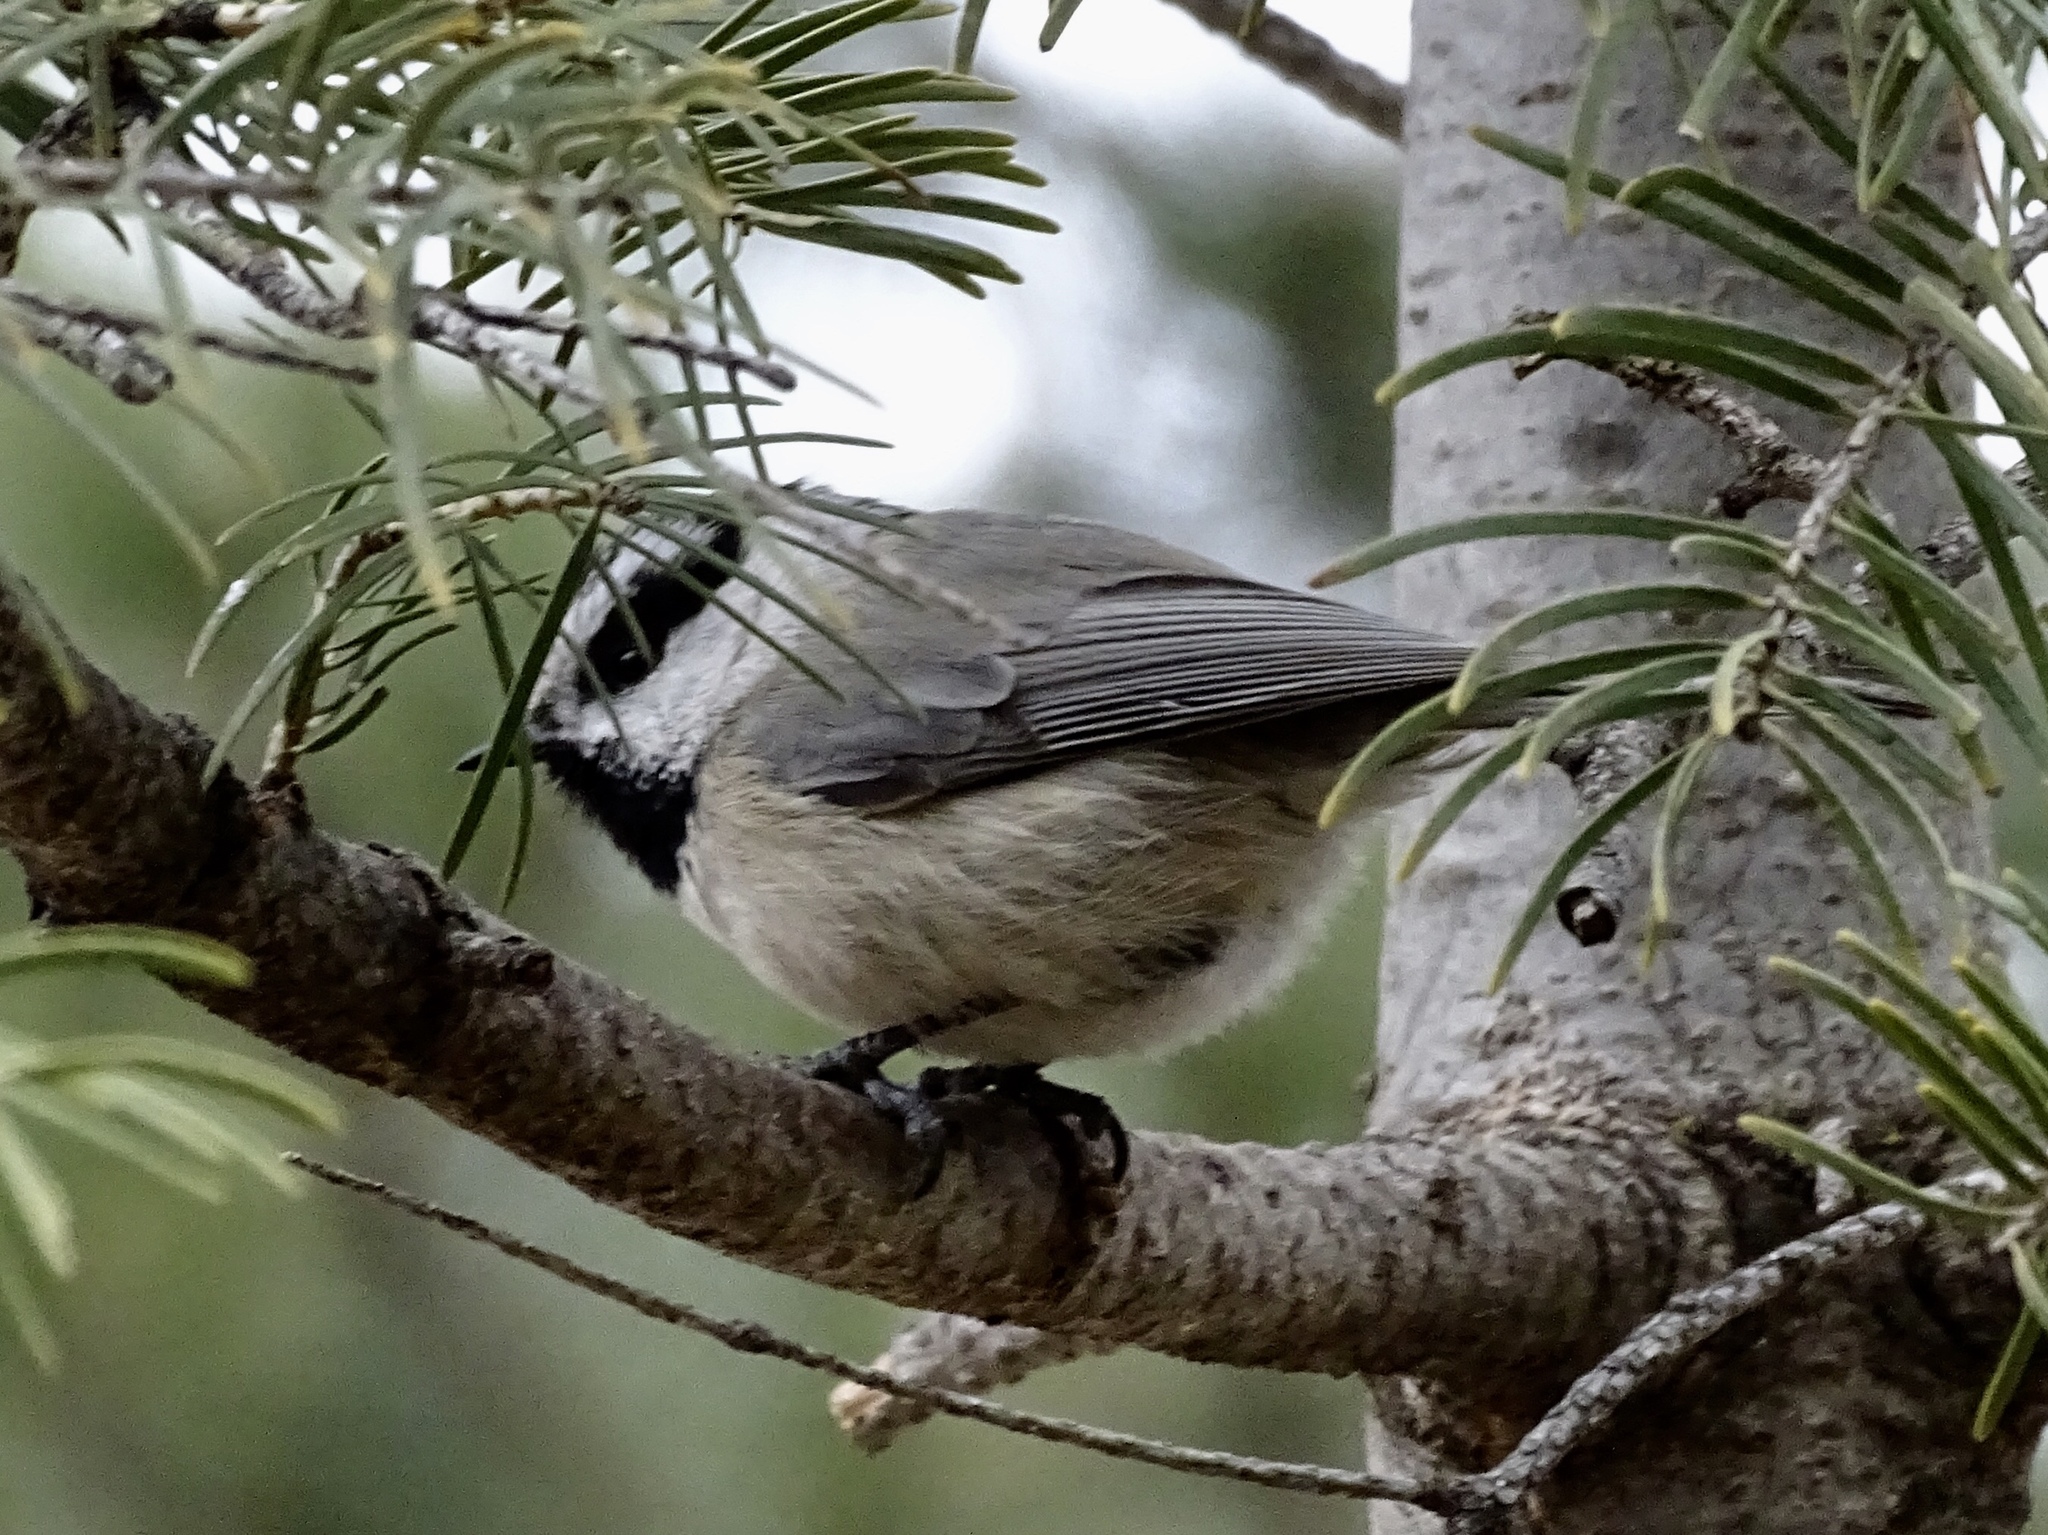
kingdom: Animalia
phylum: Chordata
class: Aves
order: Passeriformes
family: Paridae
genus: Poecile
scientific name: Poecile gambeli
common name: Mountain chickadee
